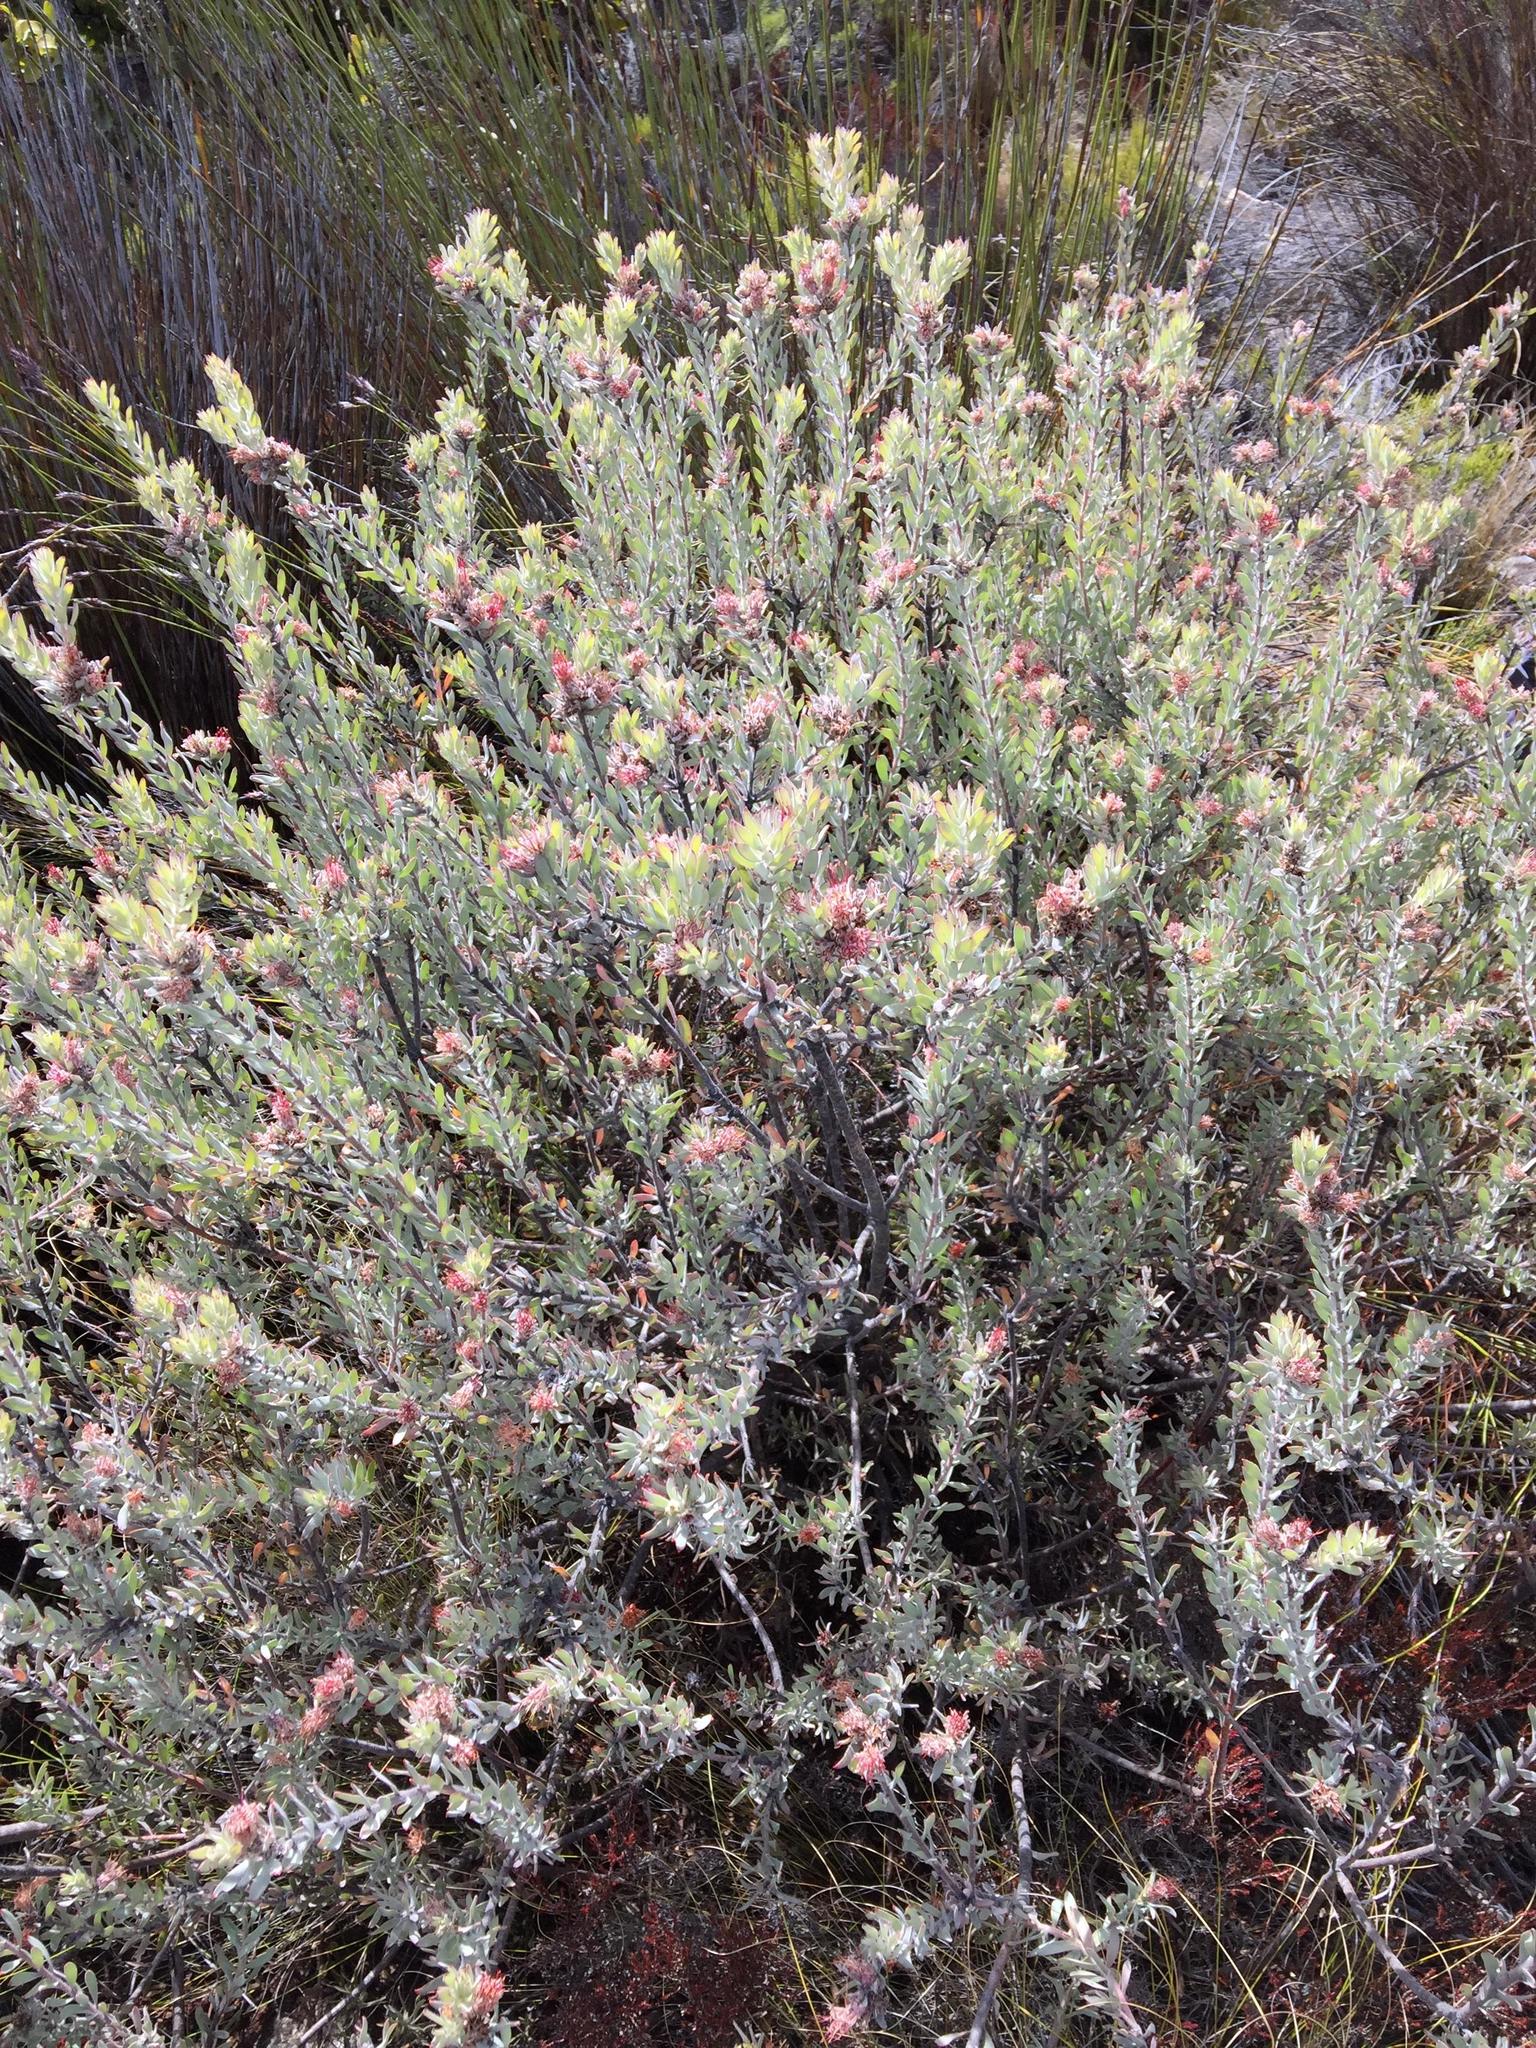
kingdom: Plantae
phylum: Tracheophyta
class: Magnoliopsida
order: Proteales
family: Proteaceae
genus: Leucospermum
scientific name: Leucospermum wittebergense
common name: Swartberg pincushion
